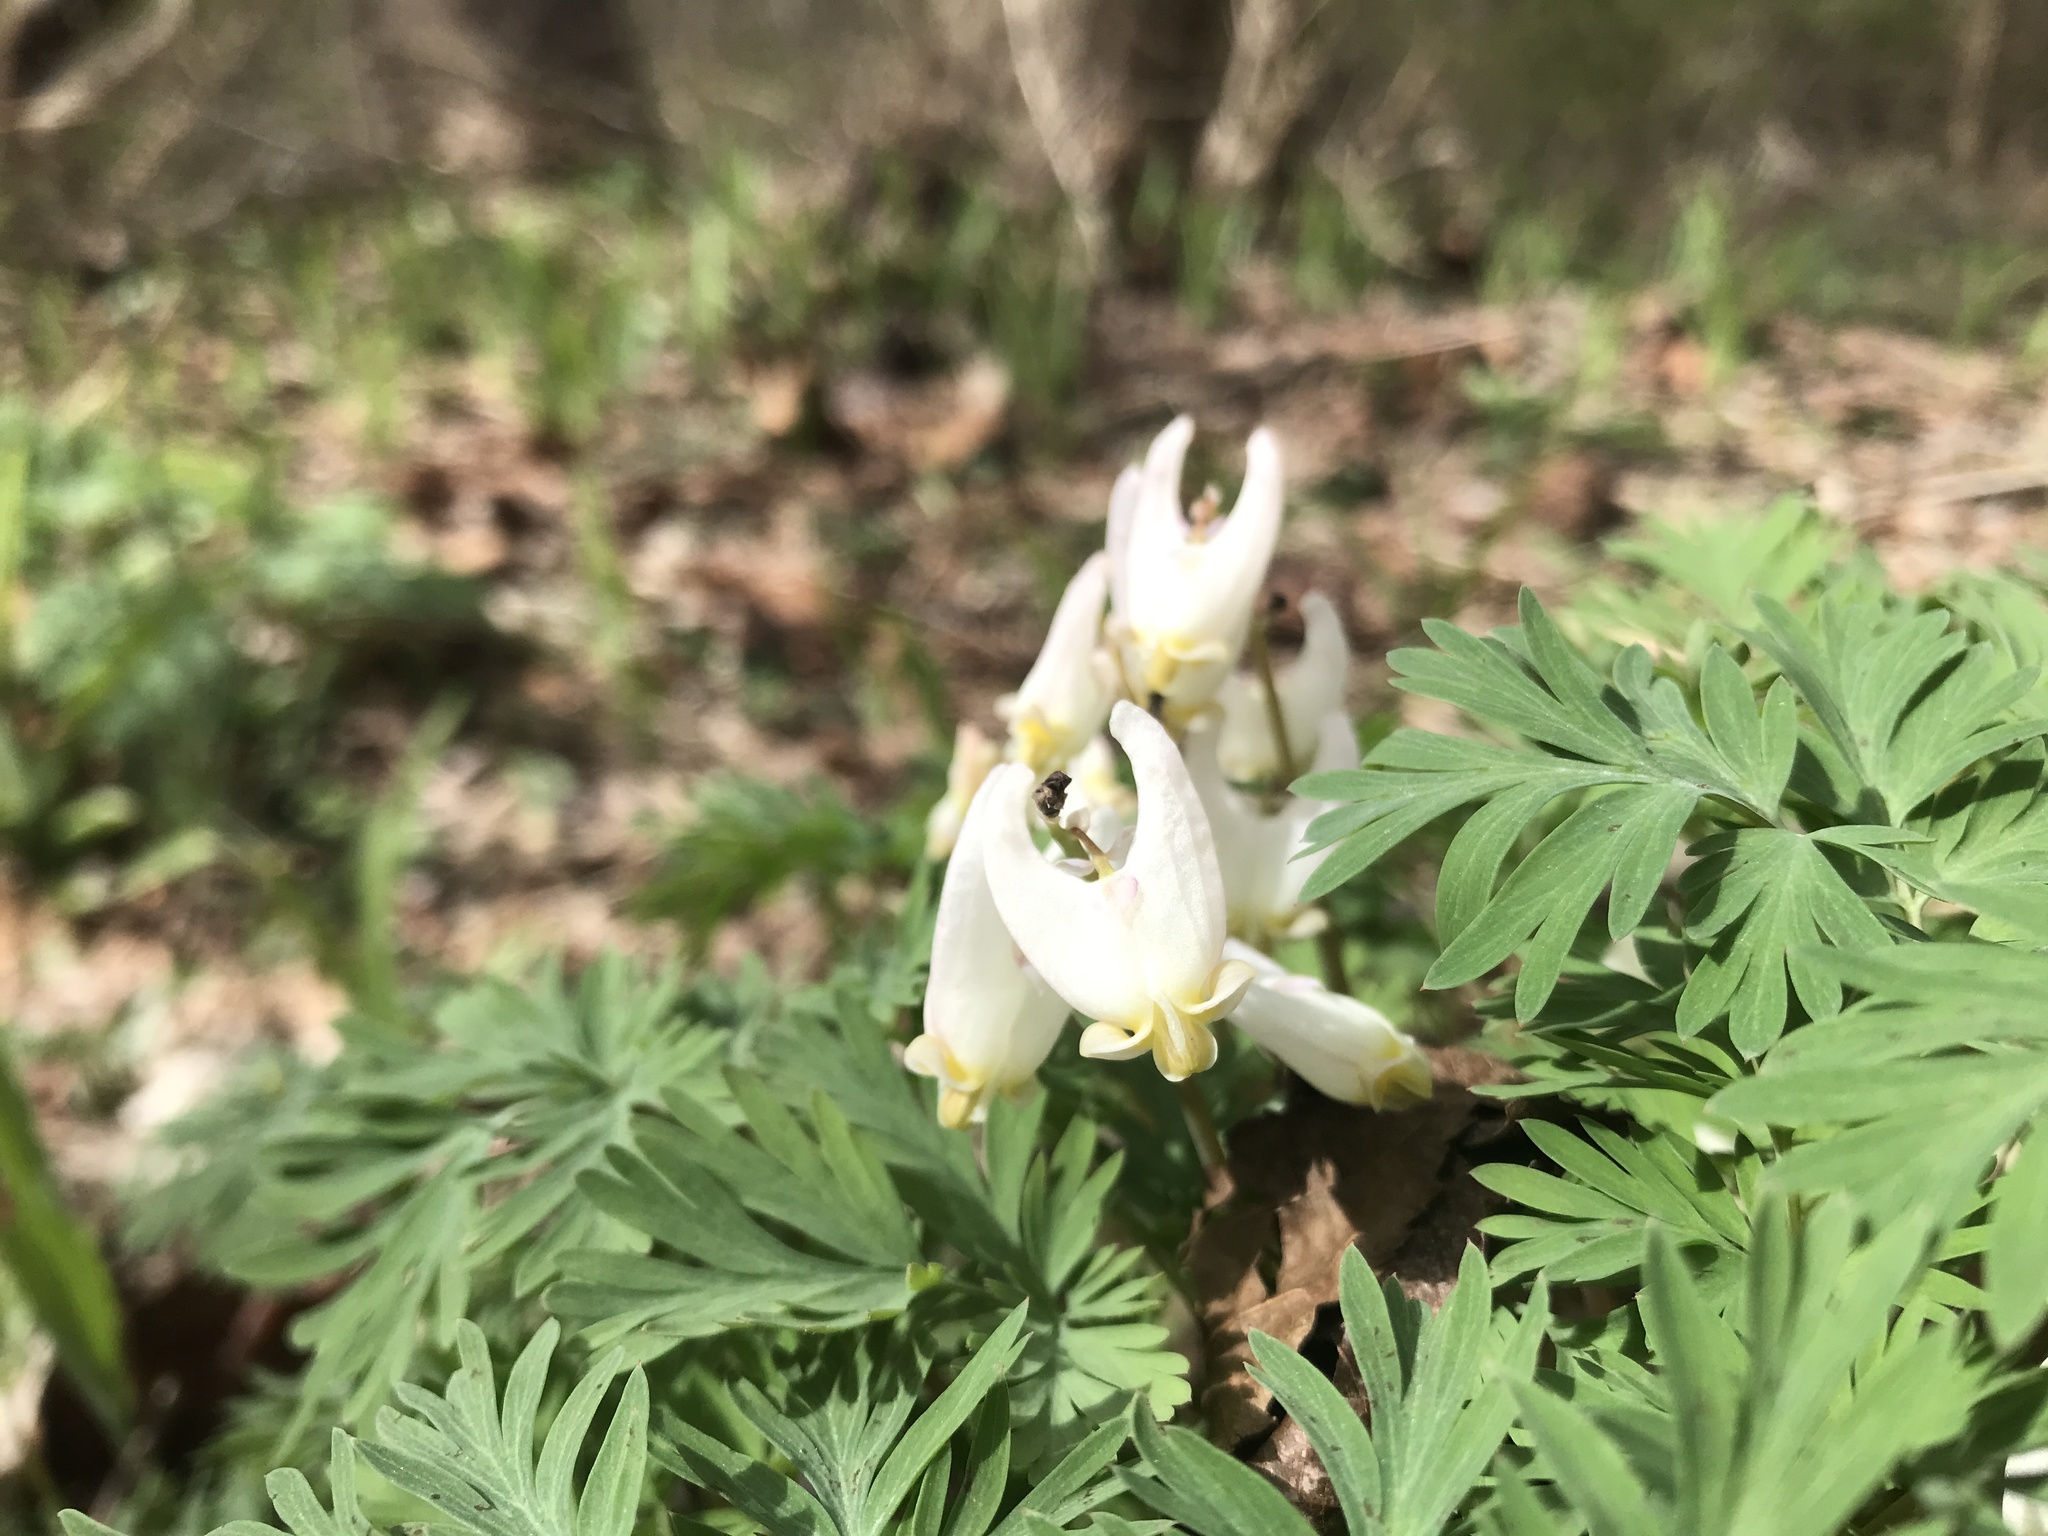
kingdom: Plantae
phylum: Tracheophyta
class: Magnoliopsida
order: Ranunculales
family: Papaveraceae
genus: Dicentra
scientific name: Dicentra cucullaria
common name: Dutchman's breeches
